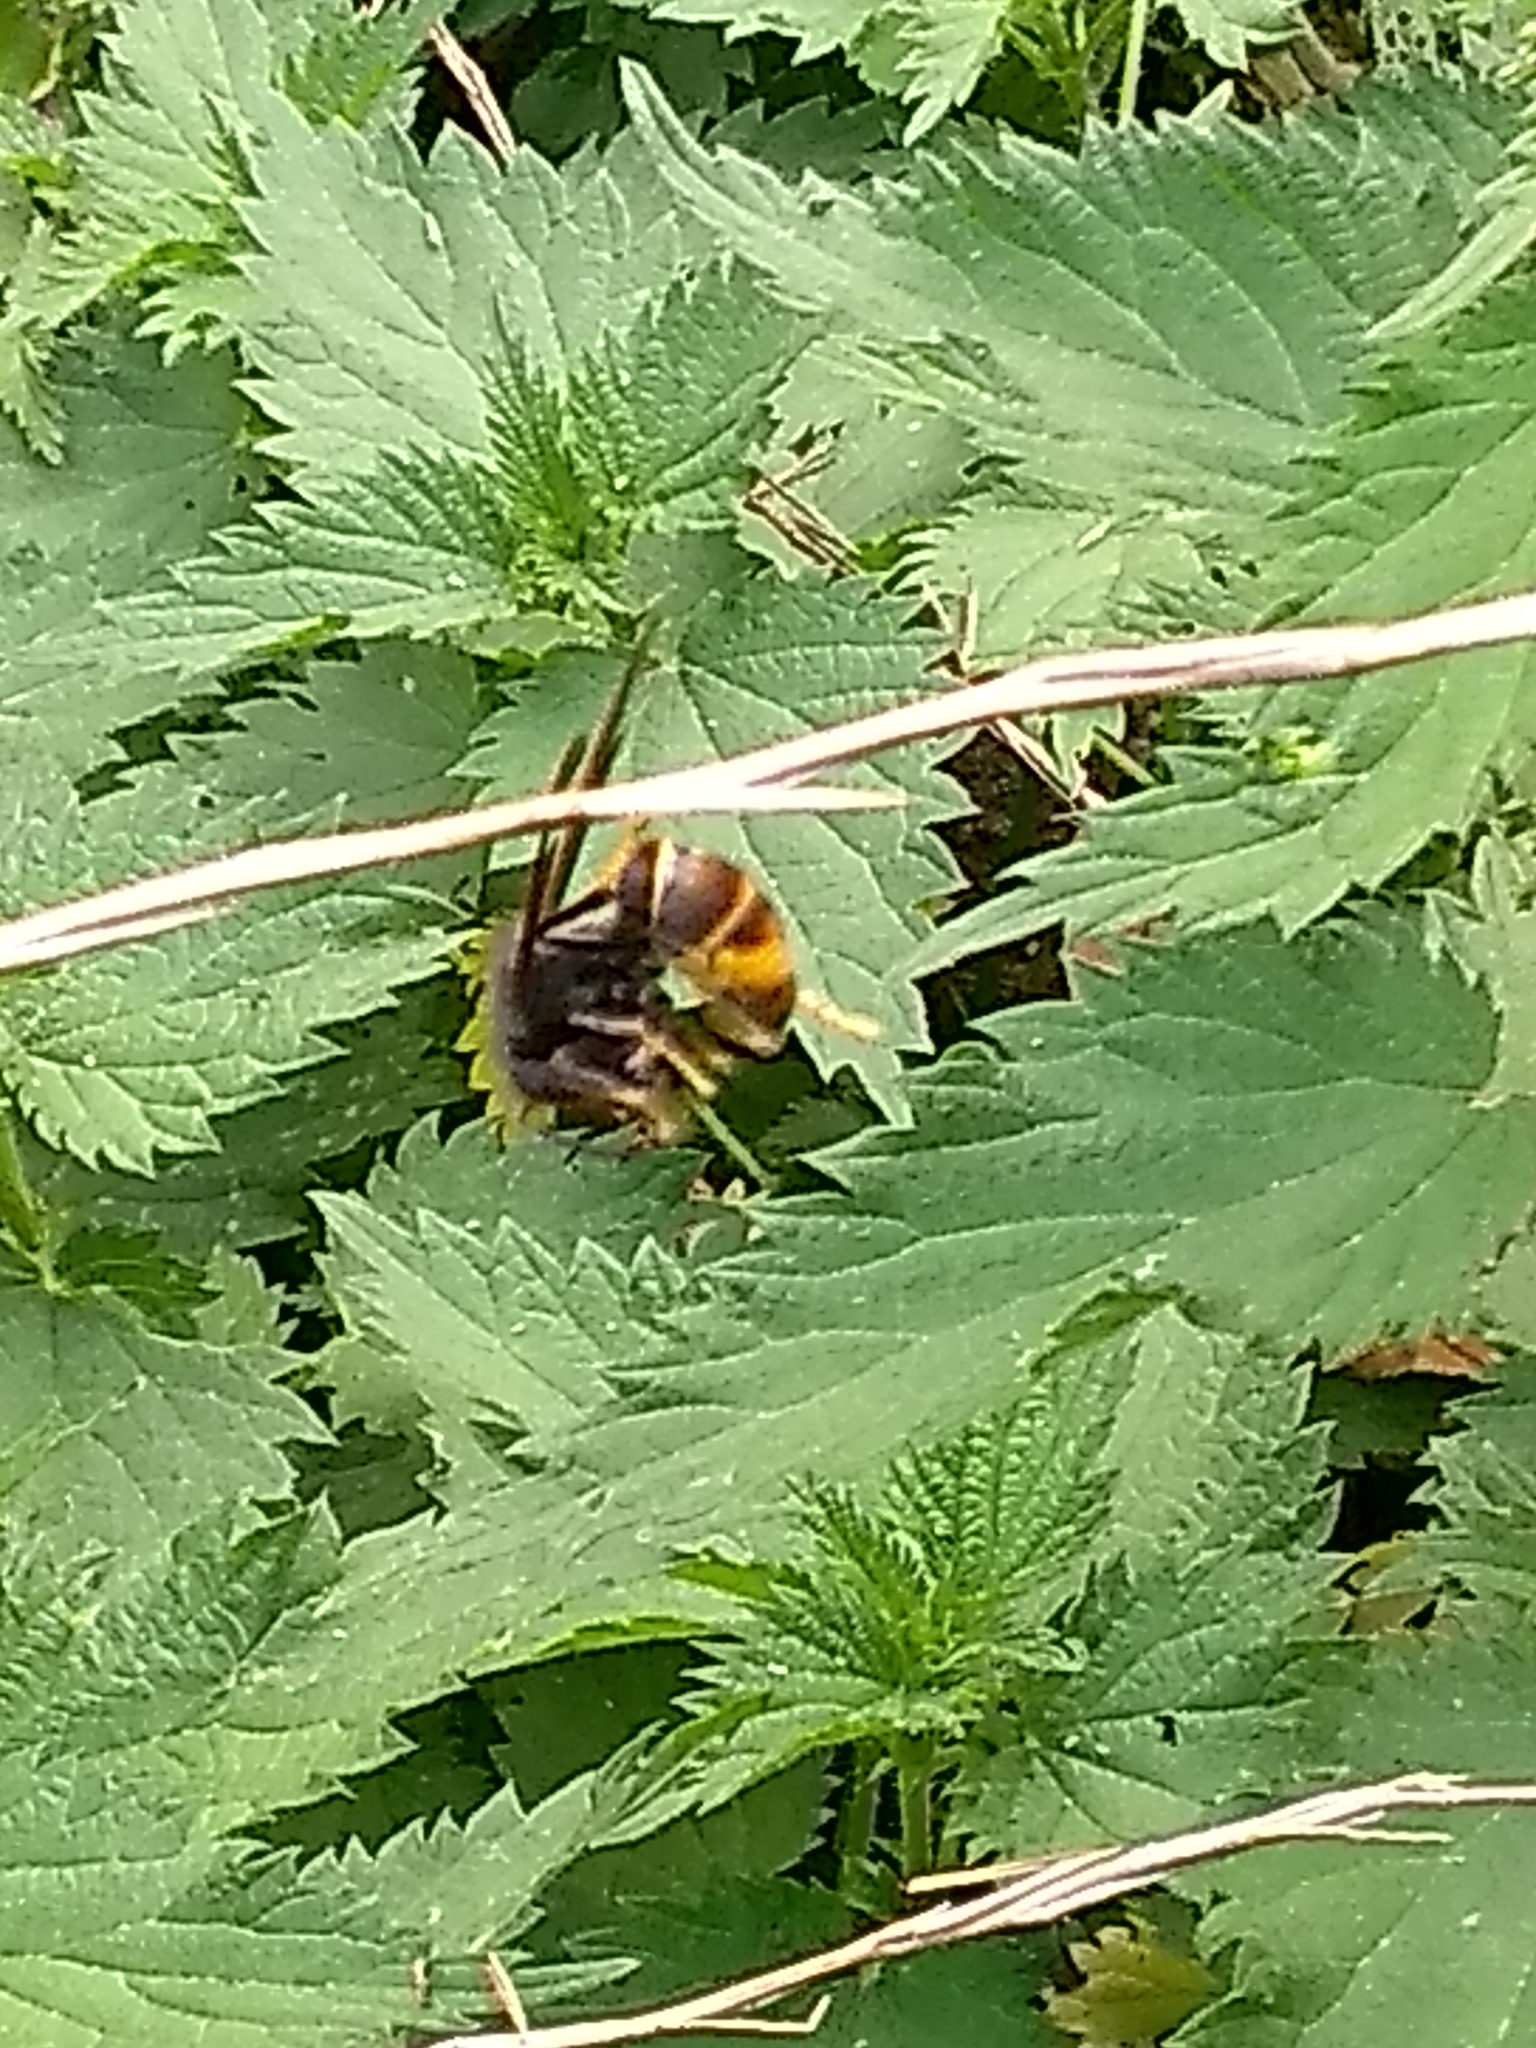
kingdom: Animalia
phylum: Arthropoda
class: Insecta
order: Hymenoptera
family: Vespidae
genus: Vespa
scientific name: Vespa velutina
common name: Asian hornet
